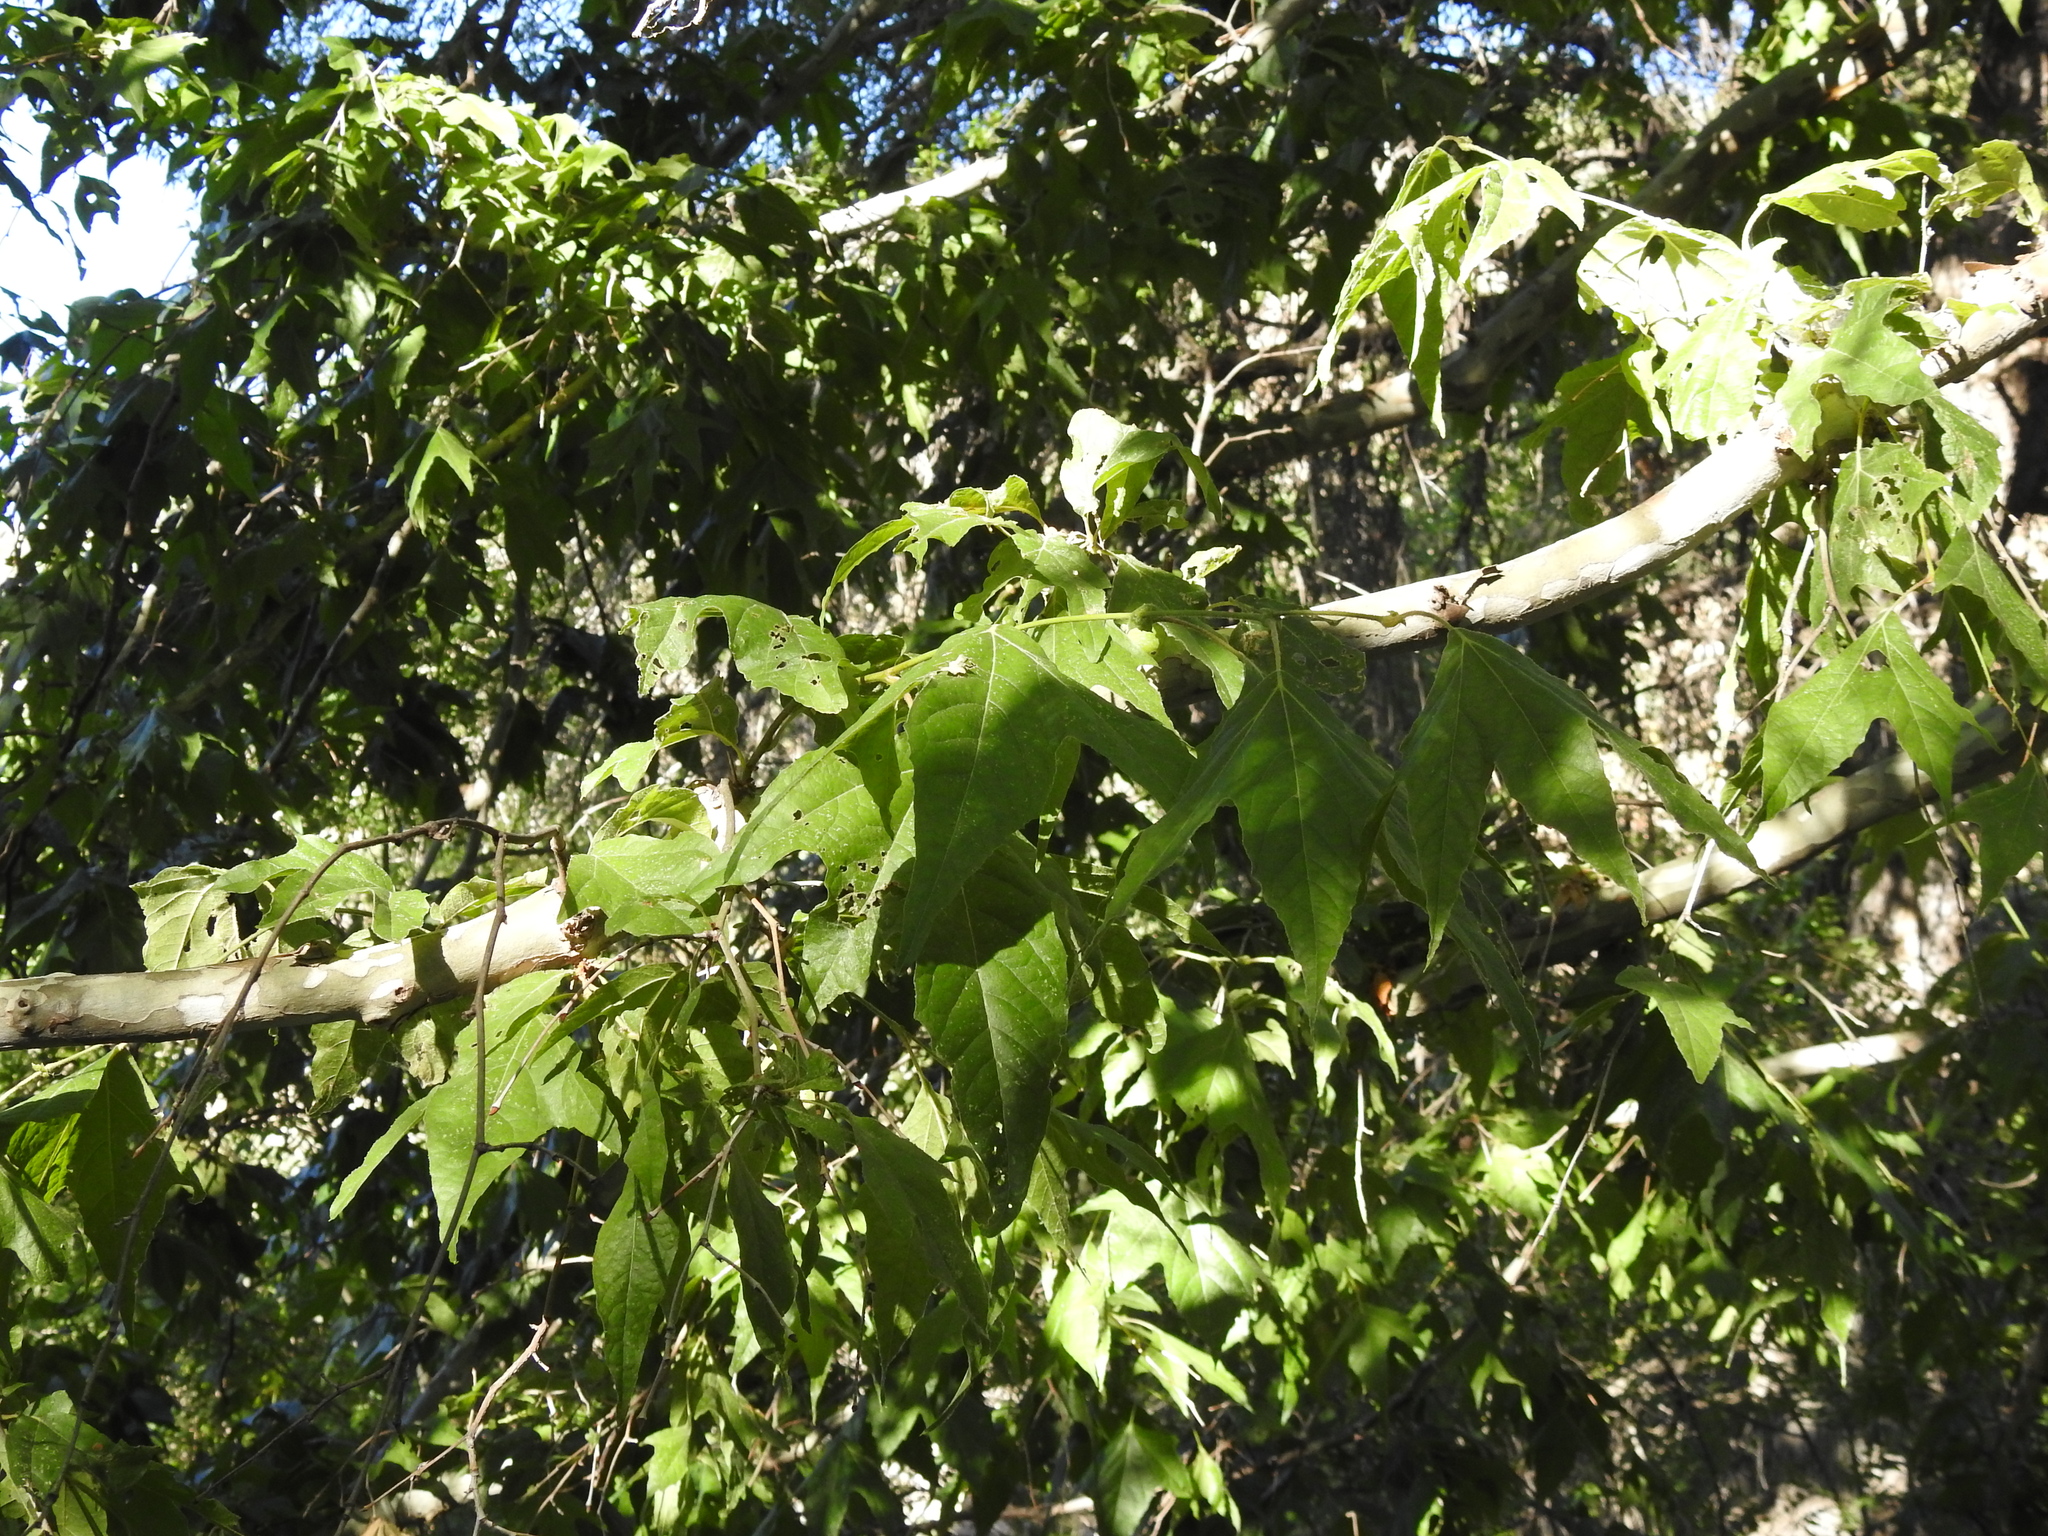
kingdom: Plantae
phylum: Tracheophyta
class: Magnoliopsida
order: Proteales
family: Platanaceae
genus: Platanus
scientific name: Platanus wrightii
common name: Arizona sycamore
